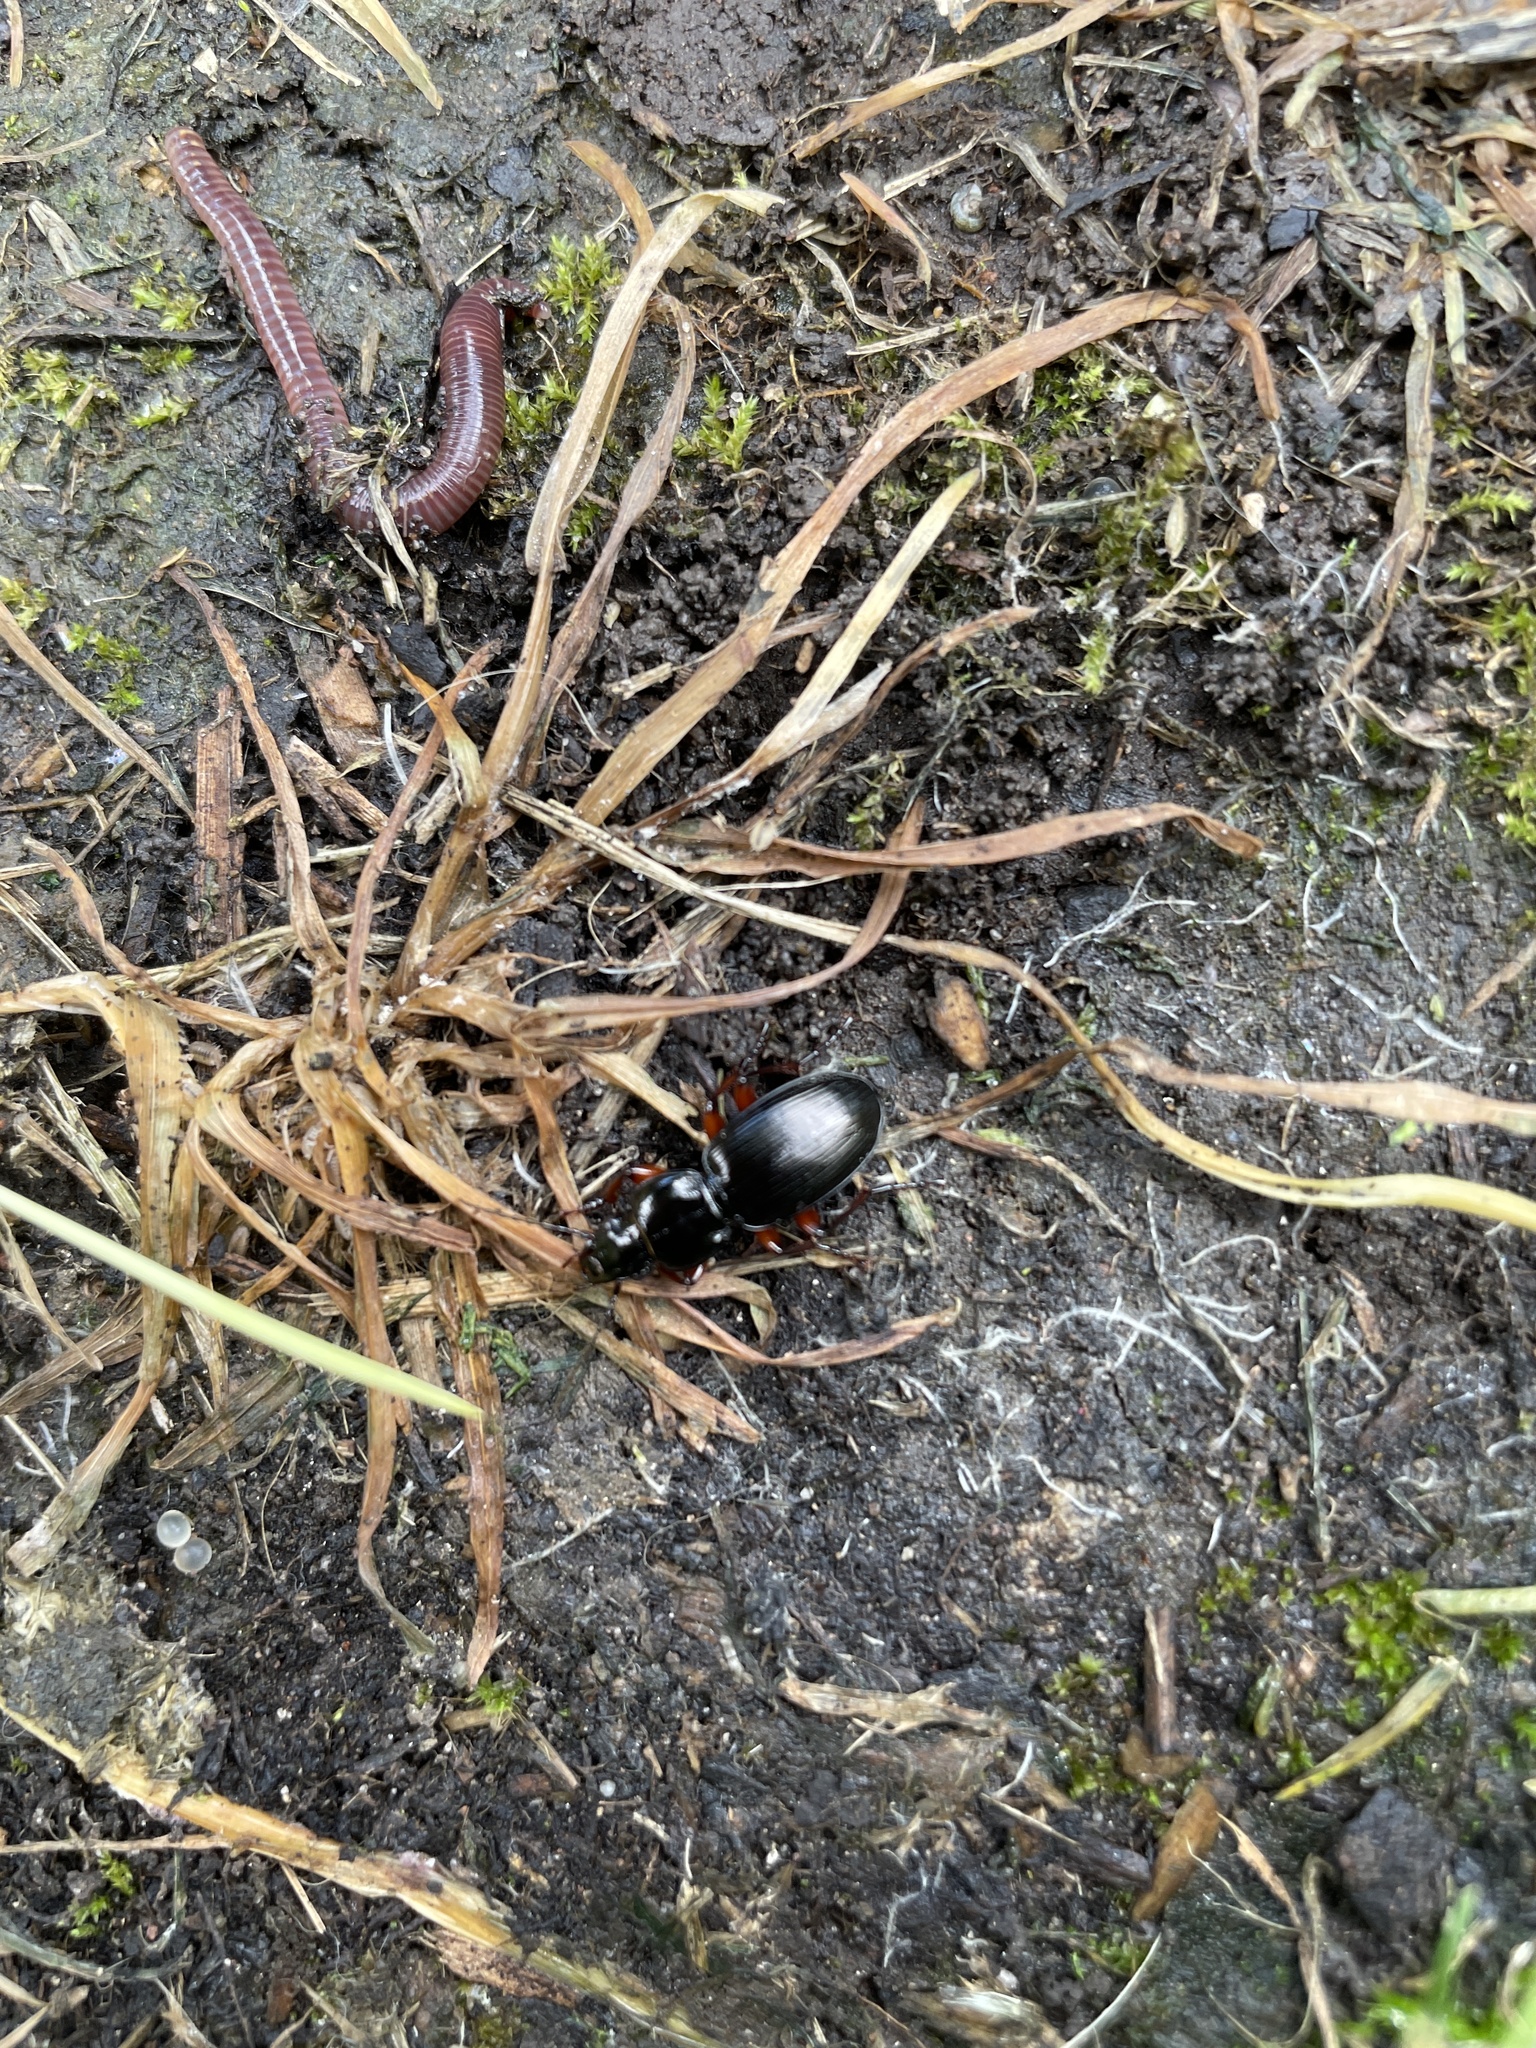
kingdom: Animalia
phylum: Arthropoda
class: Insecta
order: Coleoptera
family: Carabidae
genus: Pterostichus
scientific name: Pterostichus madidus
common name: Black clock
